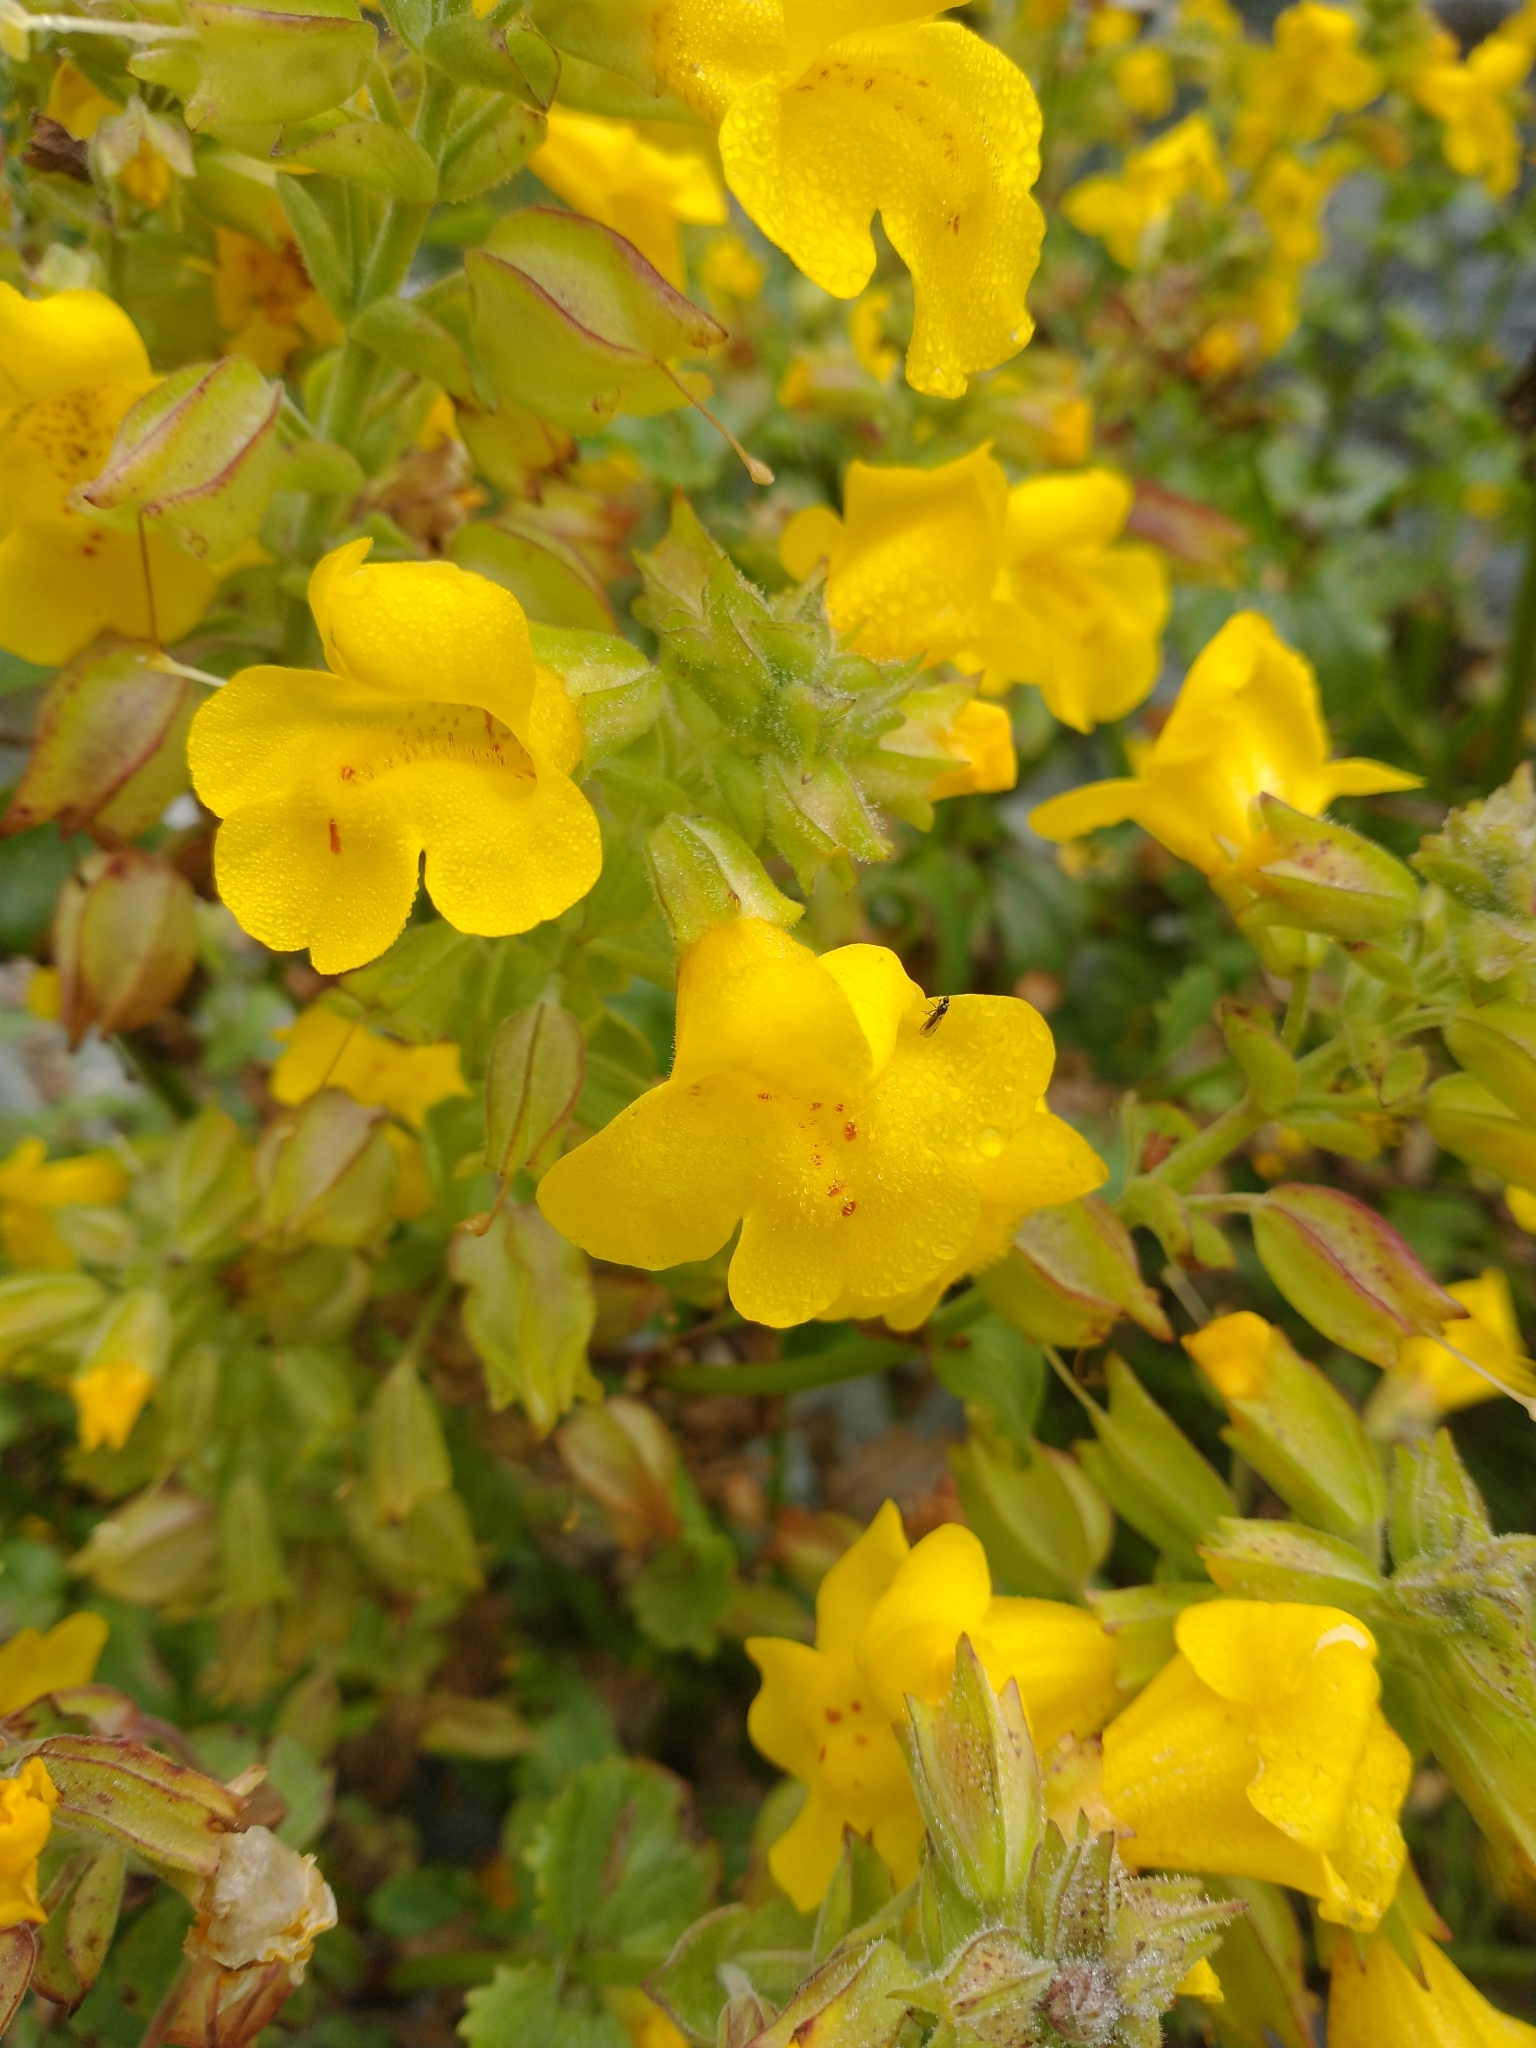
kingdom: Plantae
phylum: Tracheophyta
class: Magnoliopsida
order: Lamiales
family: Phrymaceae
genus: Erythranthe
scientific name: Erythranthe grandis
